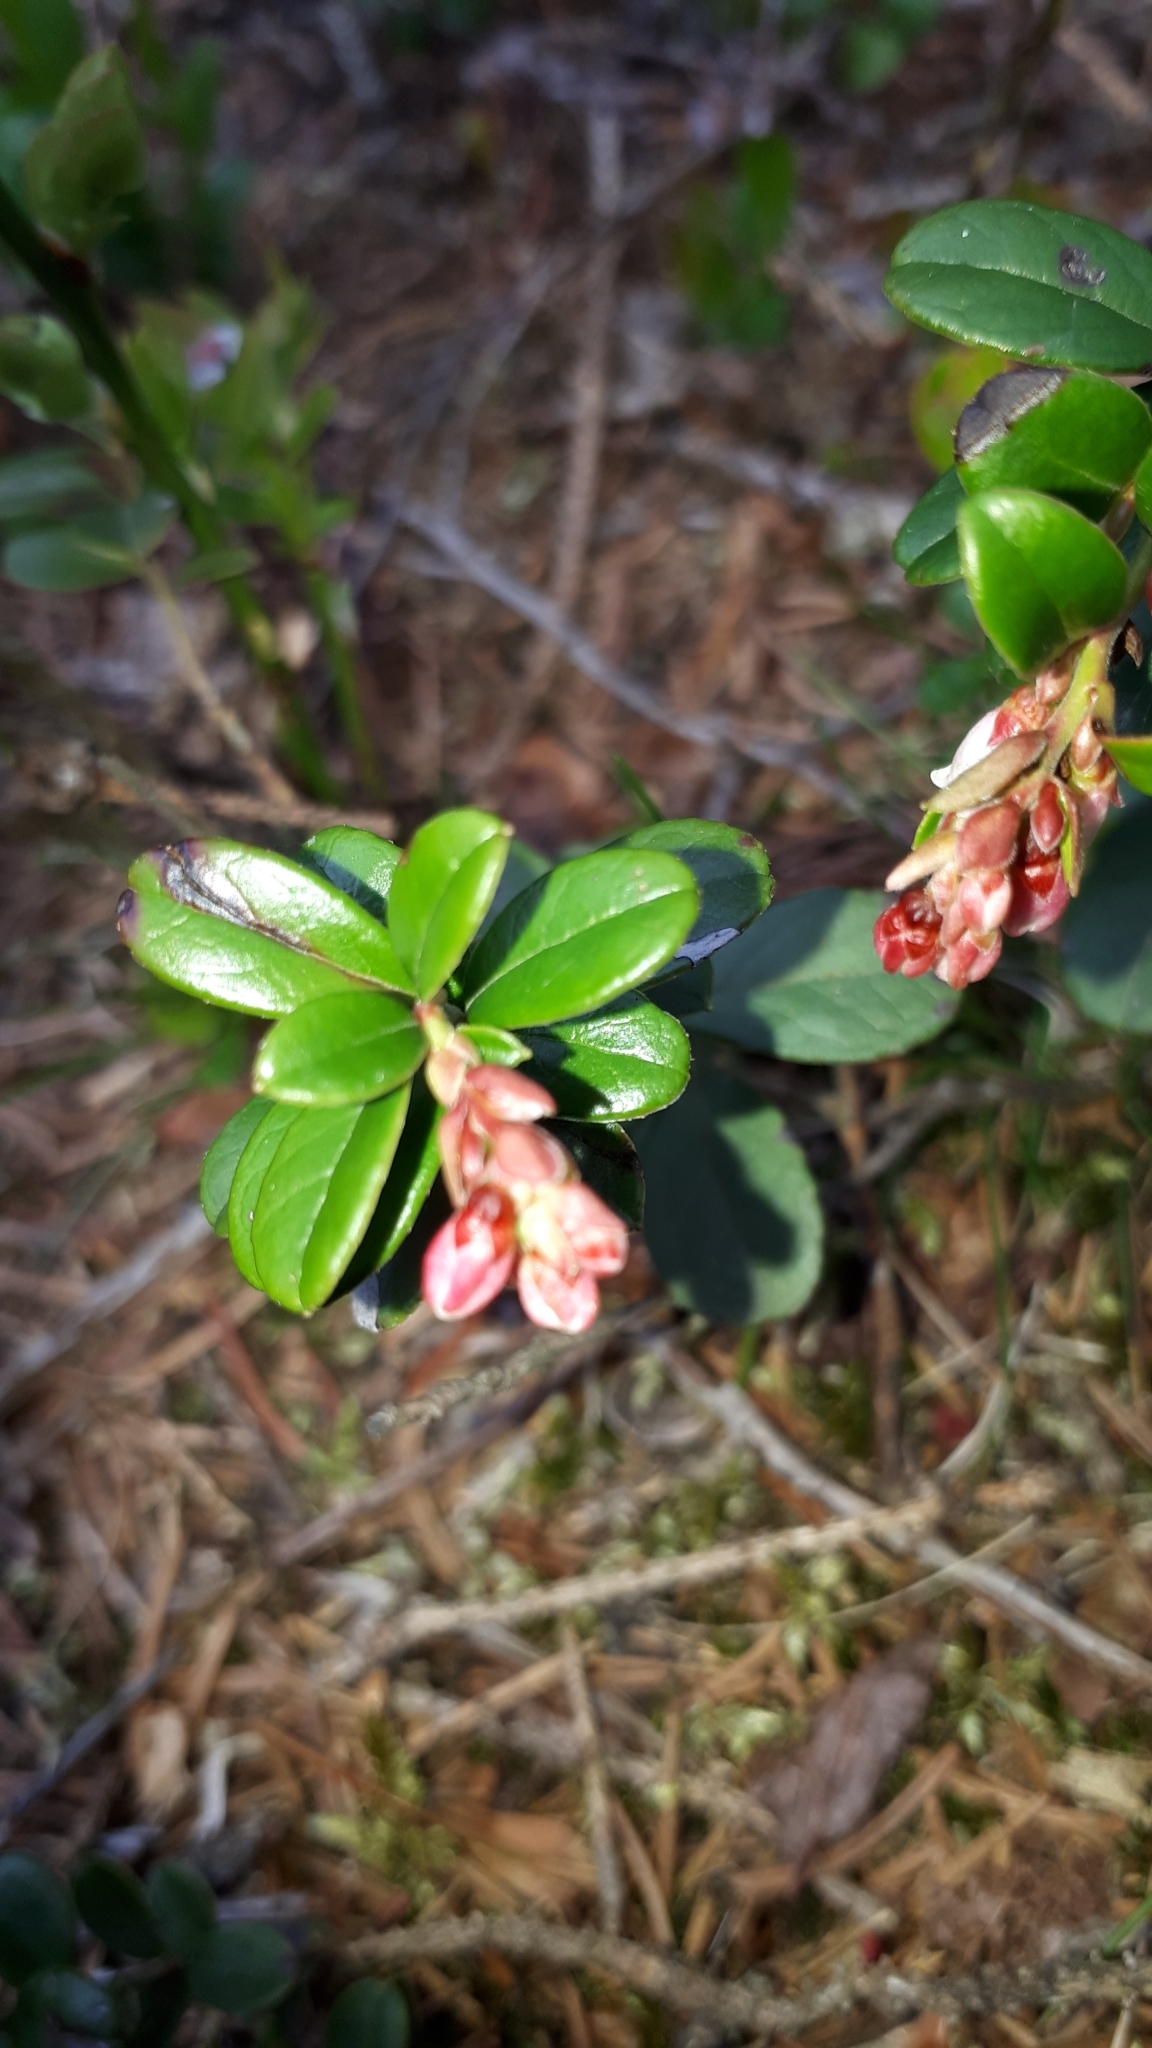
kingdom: Plantae
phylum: Tracheophyta
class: Magnoliopsida
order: Ericales
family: Ericaceae
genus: Vaccinium
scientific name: Vaccinium vitis-idaea
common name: Cowberry
